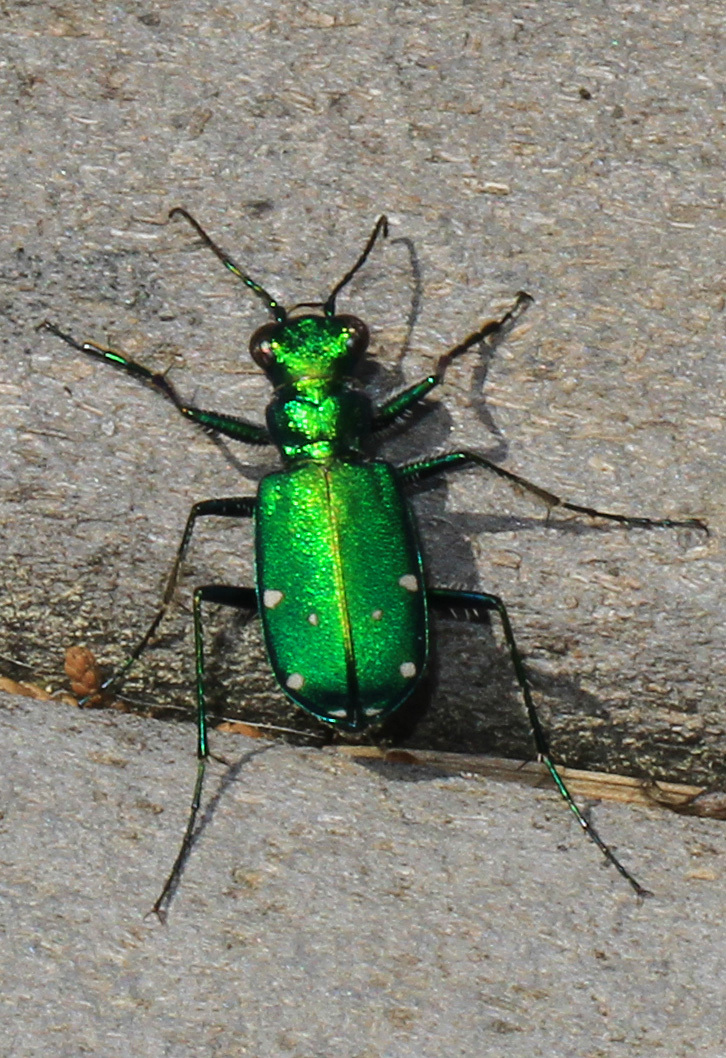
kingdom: Animalia
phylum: Arthropoda
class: Insecta
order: Coleoptera
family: Carabidae
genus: Cicindela
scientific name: Cicindela sexguttata
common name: Six-spotted tiger beetle
